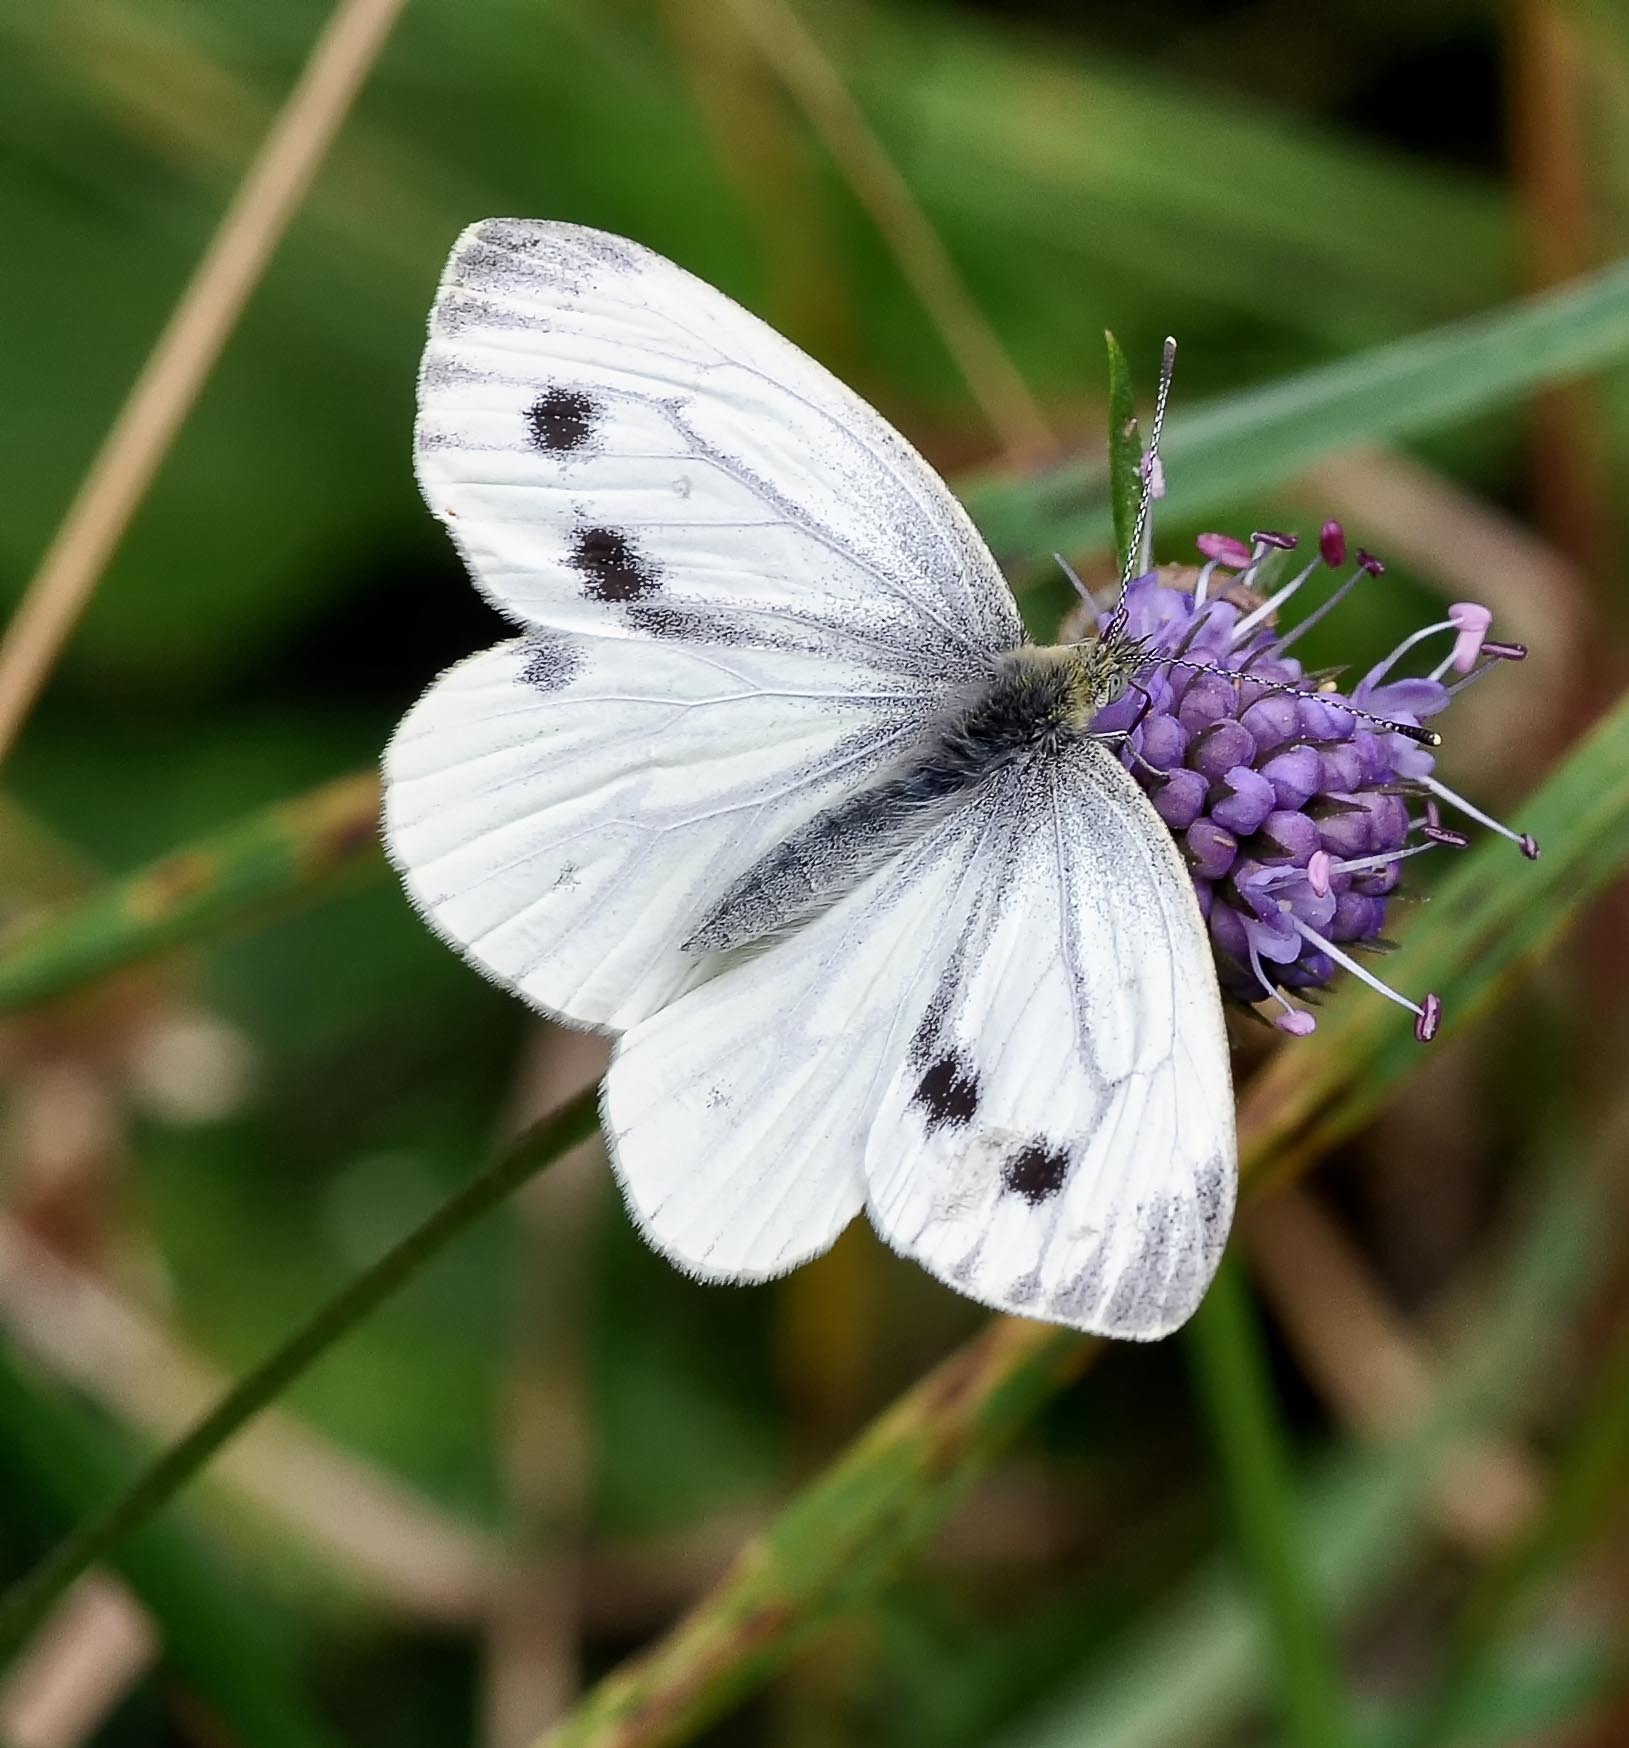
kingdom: Animalia
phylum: Arthropoda
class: Insecta
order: Lepidoptera
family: Pieridae
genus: Pieris
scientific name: Pieris napi
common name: Green-veined white
